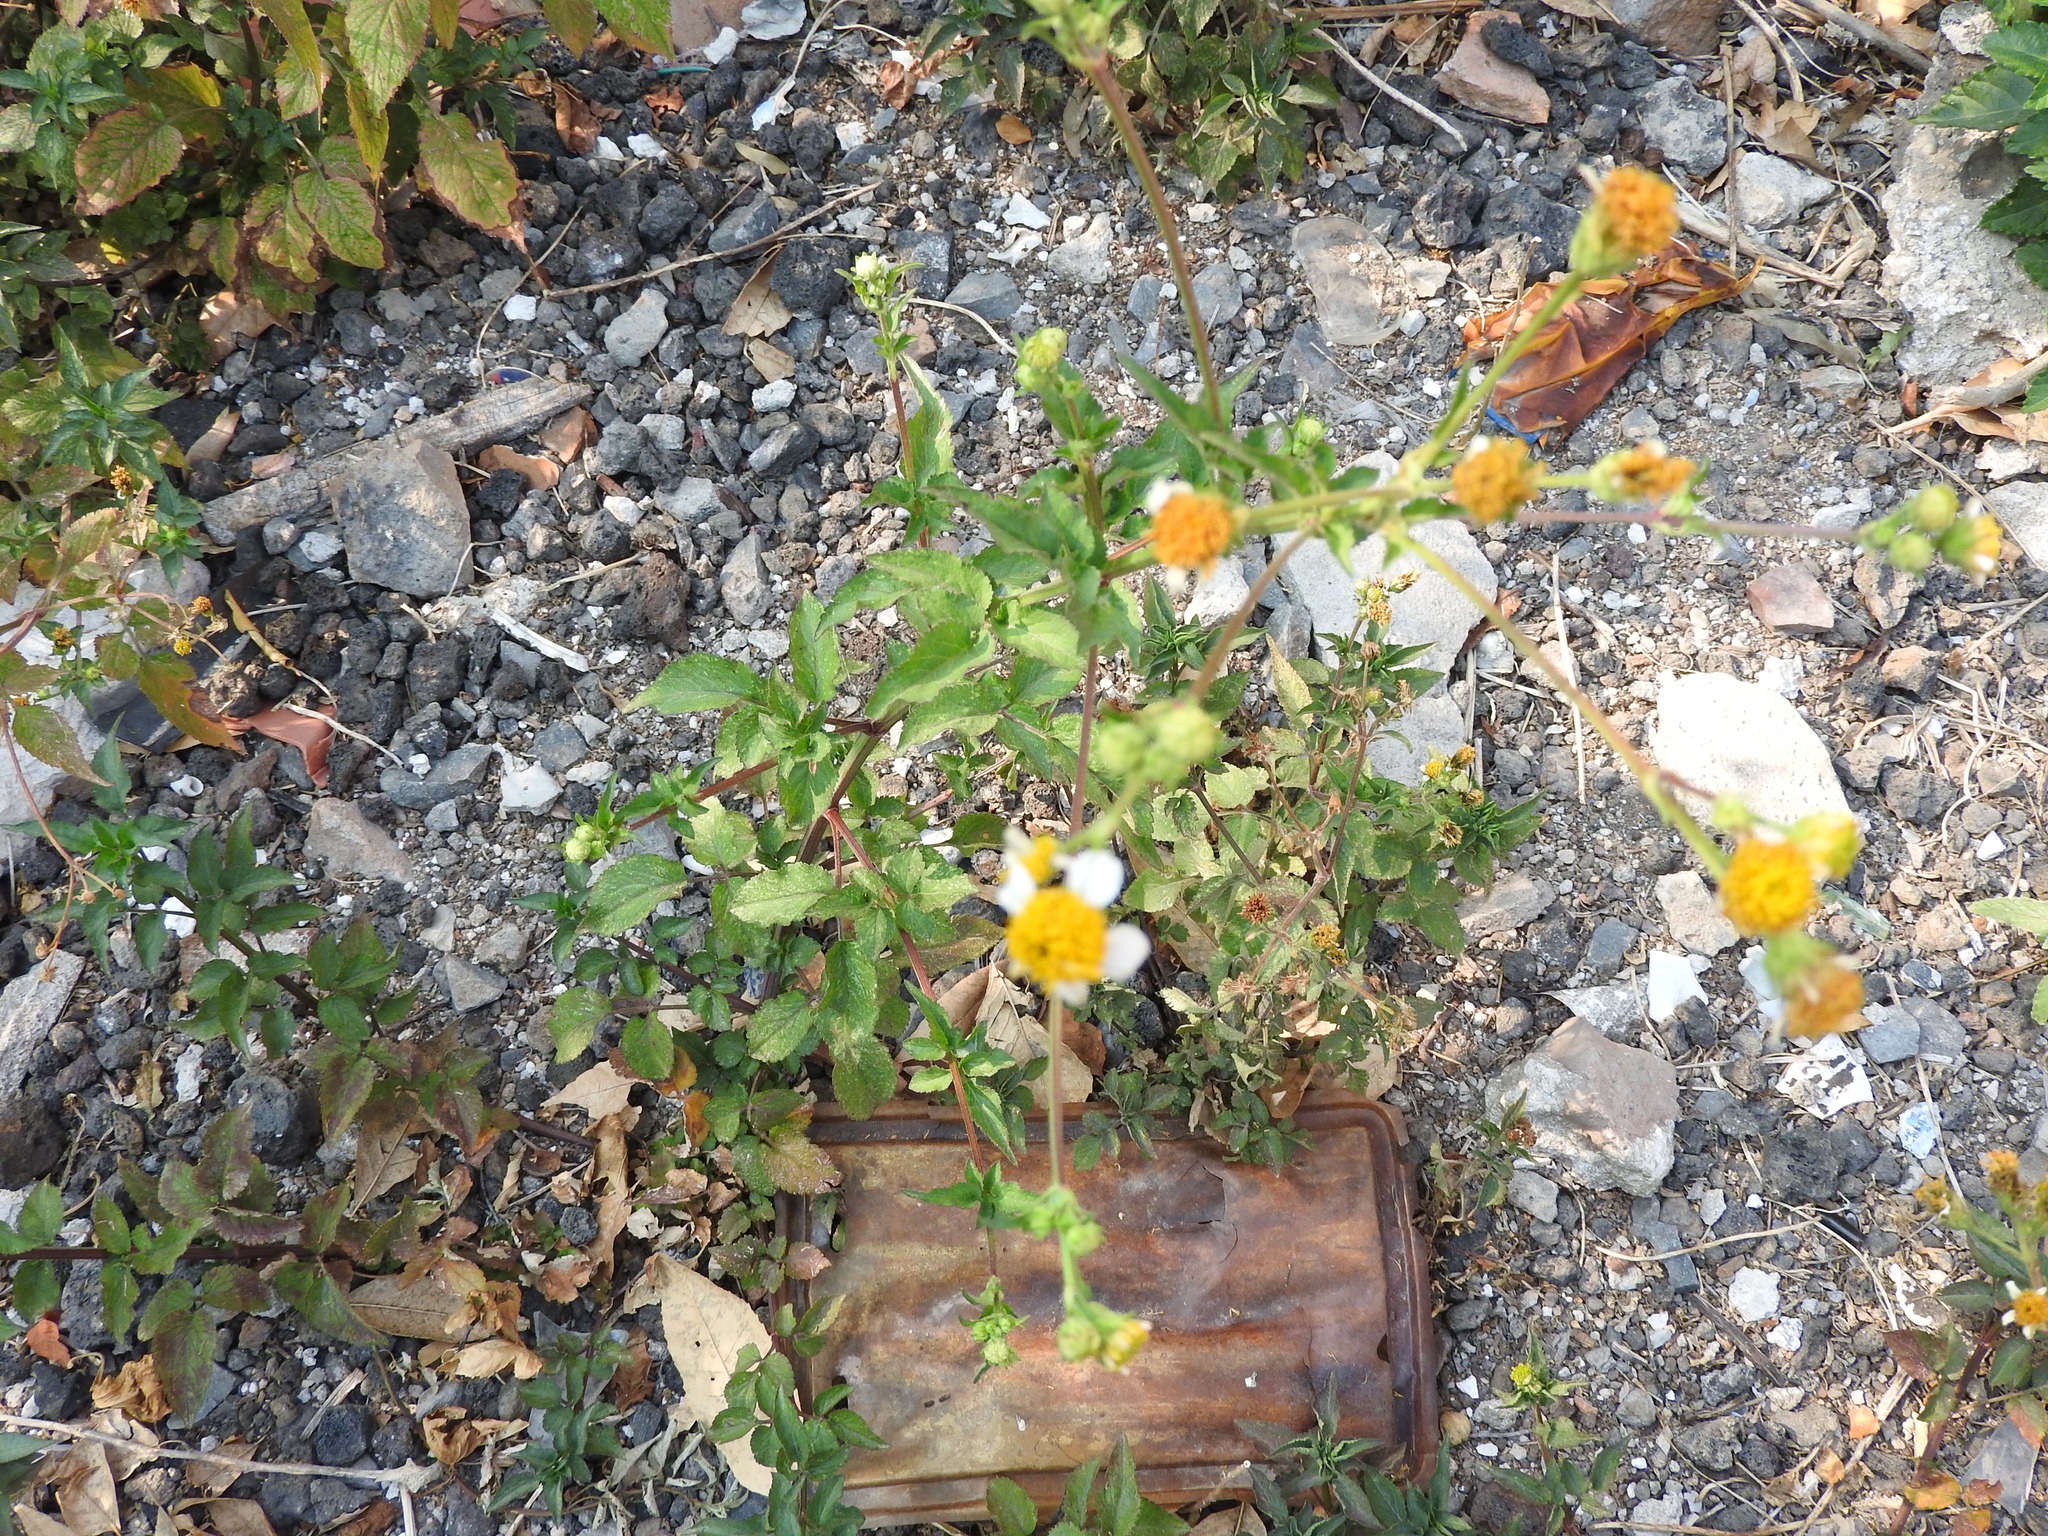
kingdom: Plantae
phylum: Tracheophyta
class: Magnoliopsida
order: Asterales
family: Asteraceae
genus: Bidens
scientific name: Bidens alba
